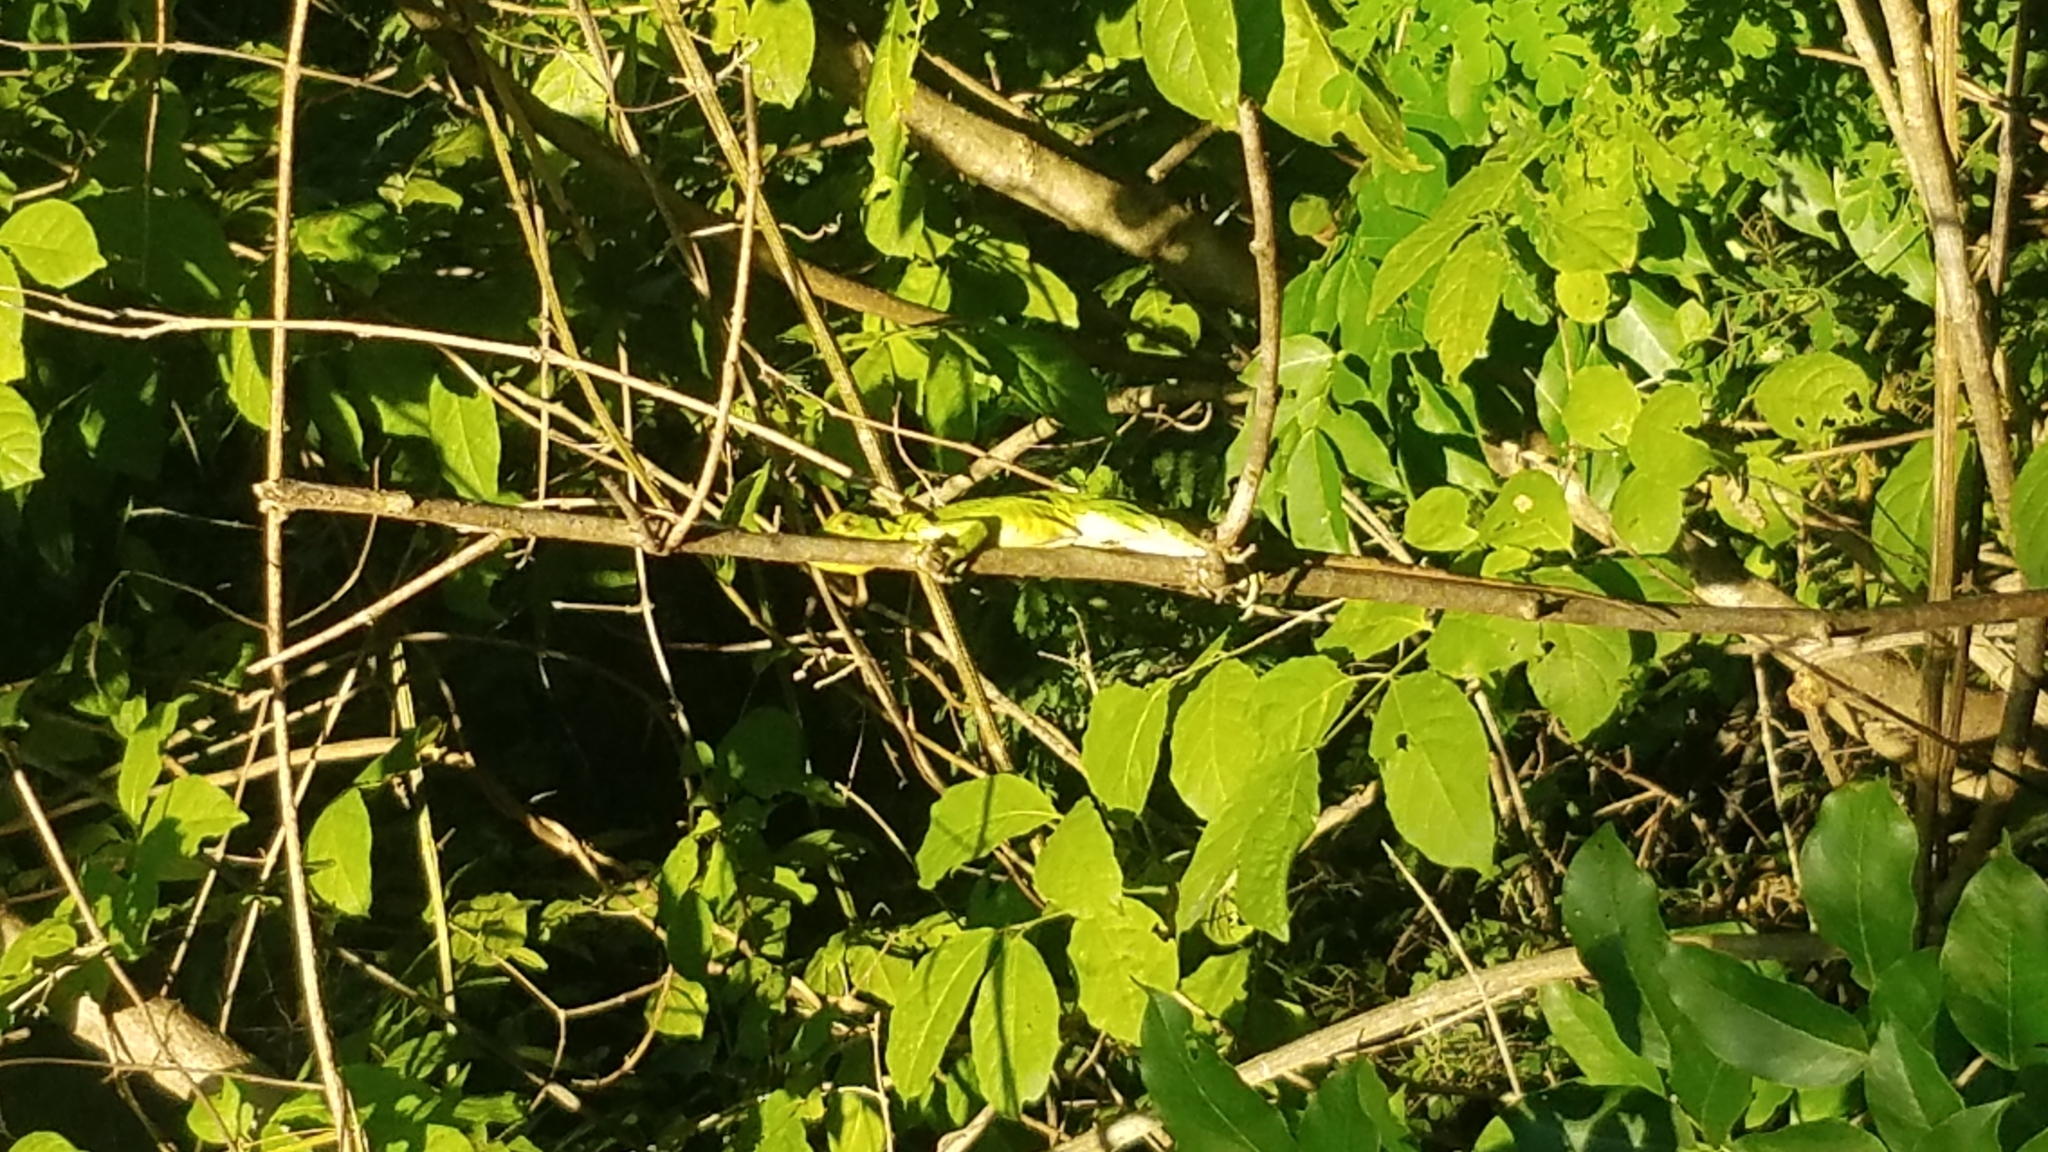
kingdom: Animalia
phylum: Chordata
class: Squamata
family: Iguanidae
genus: Ctenosaura
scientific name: Ctenosaura similis
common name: Black spiny-tailed iguana
